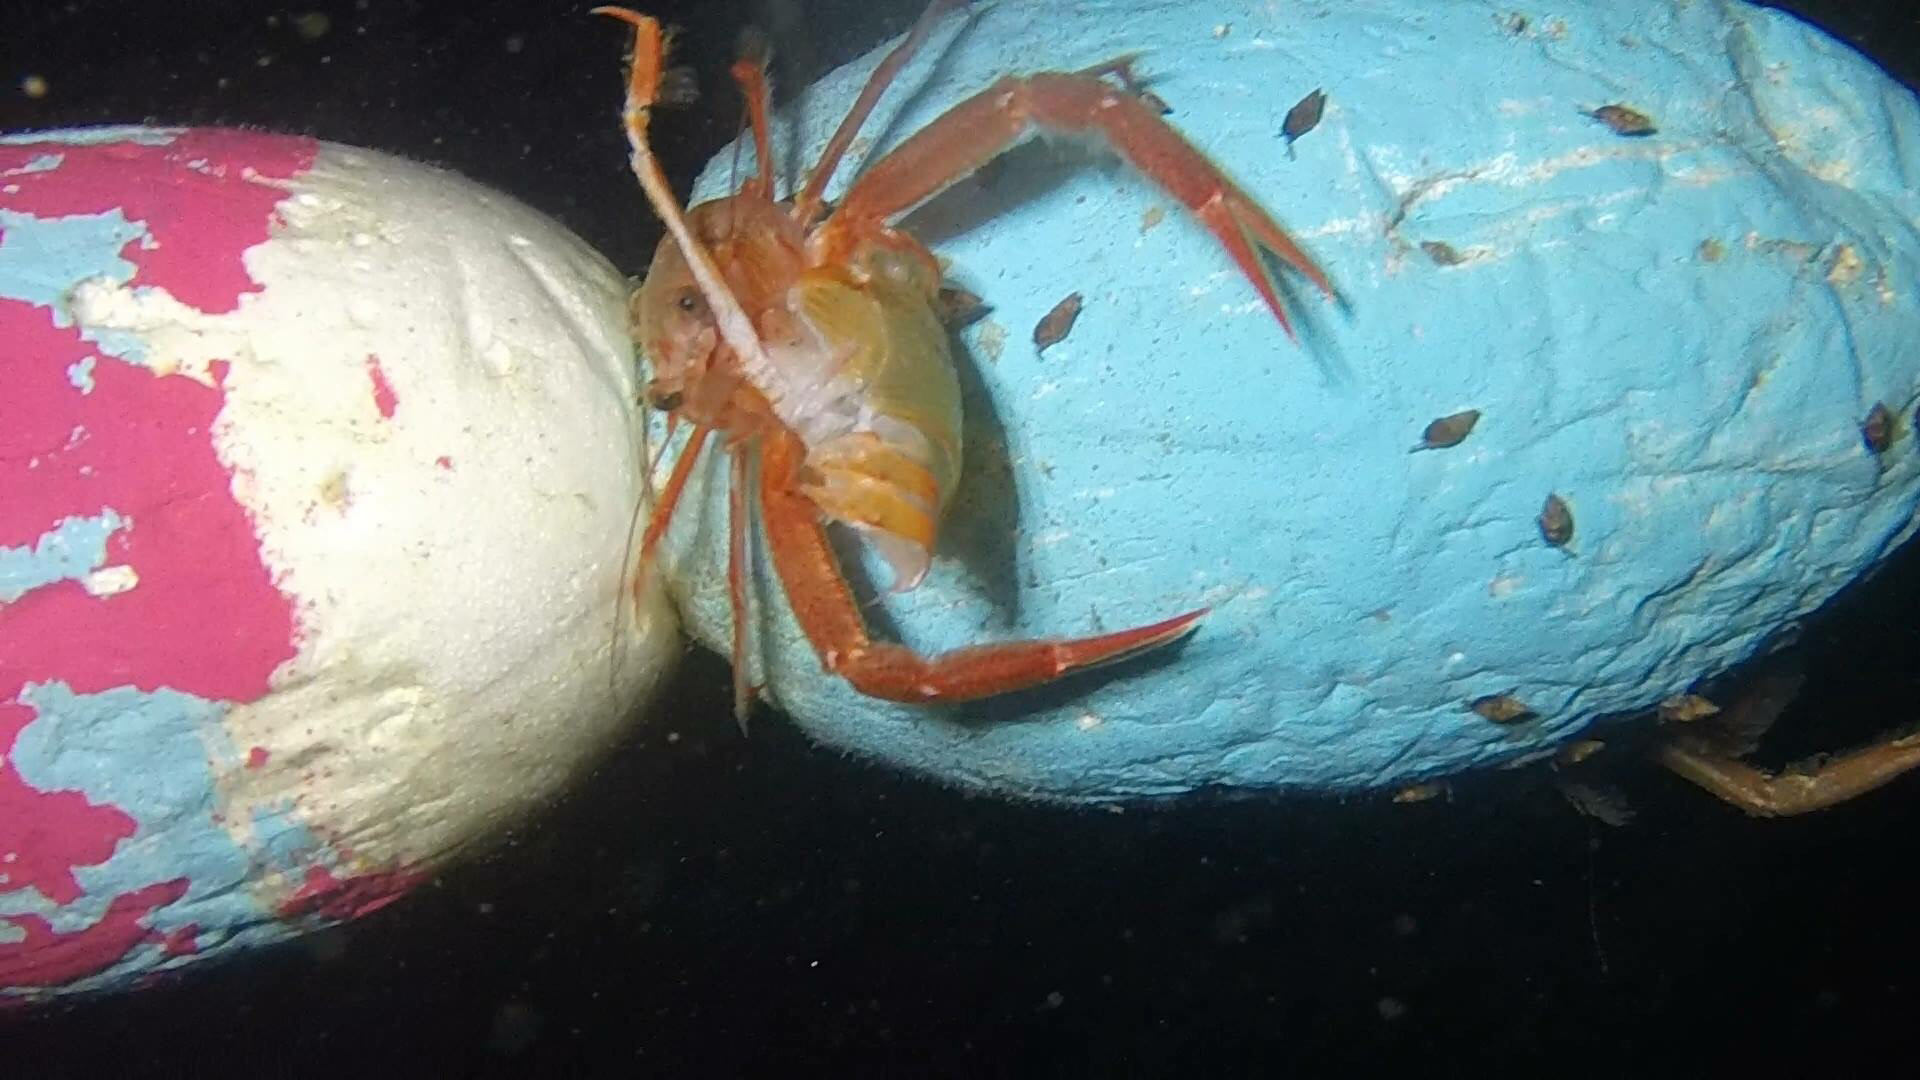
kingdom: Animalia
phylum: Arthropoda
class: Malacostraca
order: Decapoda
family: Munididae
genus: Grimothea
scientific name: Grimothea planipes
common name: Pelagic red crab
